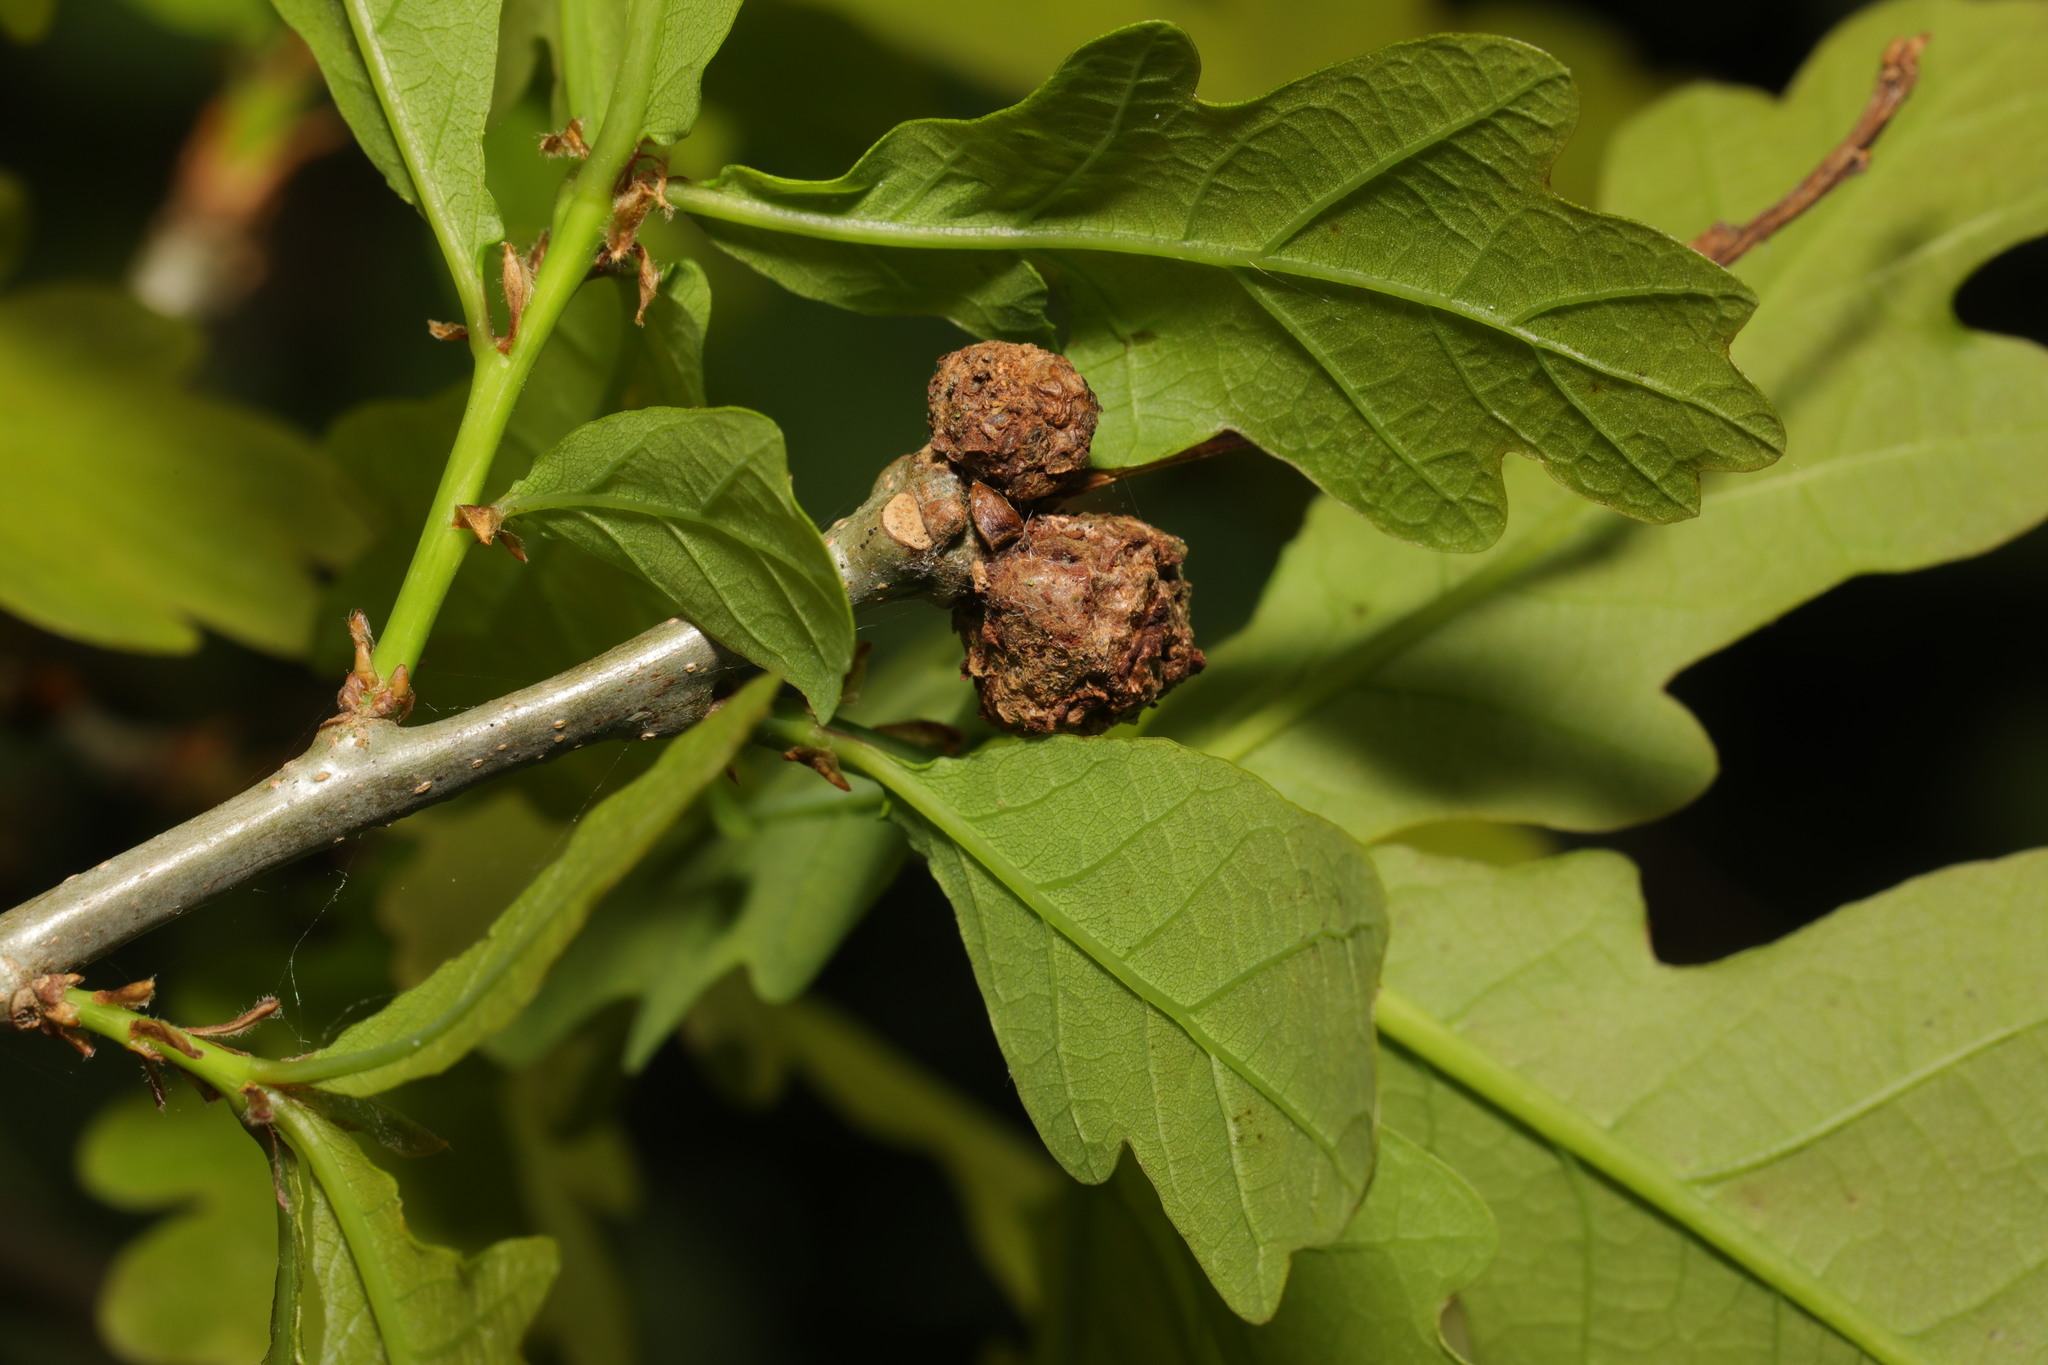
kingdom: Animalia
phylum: Arthropoda
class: Insecta
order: Hymenoptera
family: Cynipidae
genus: Andricus
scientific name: Andricus lignicolus
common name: Cola-nut gall
